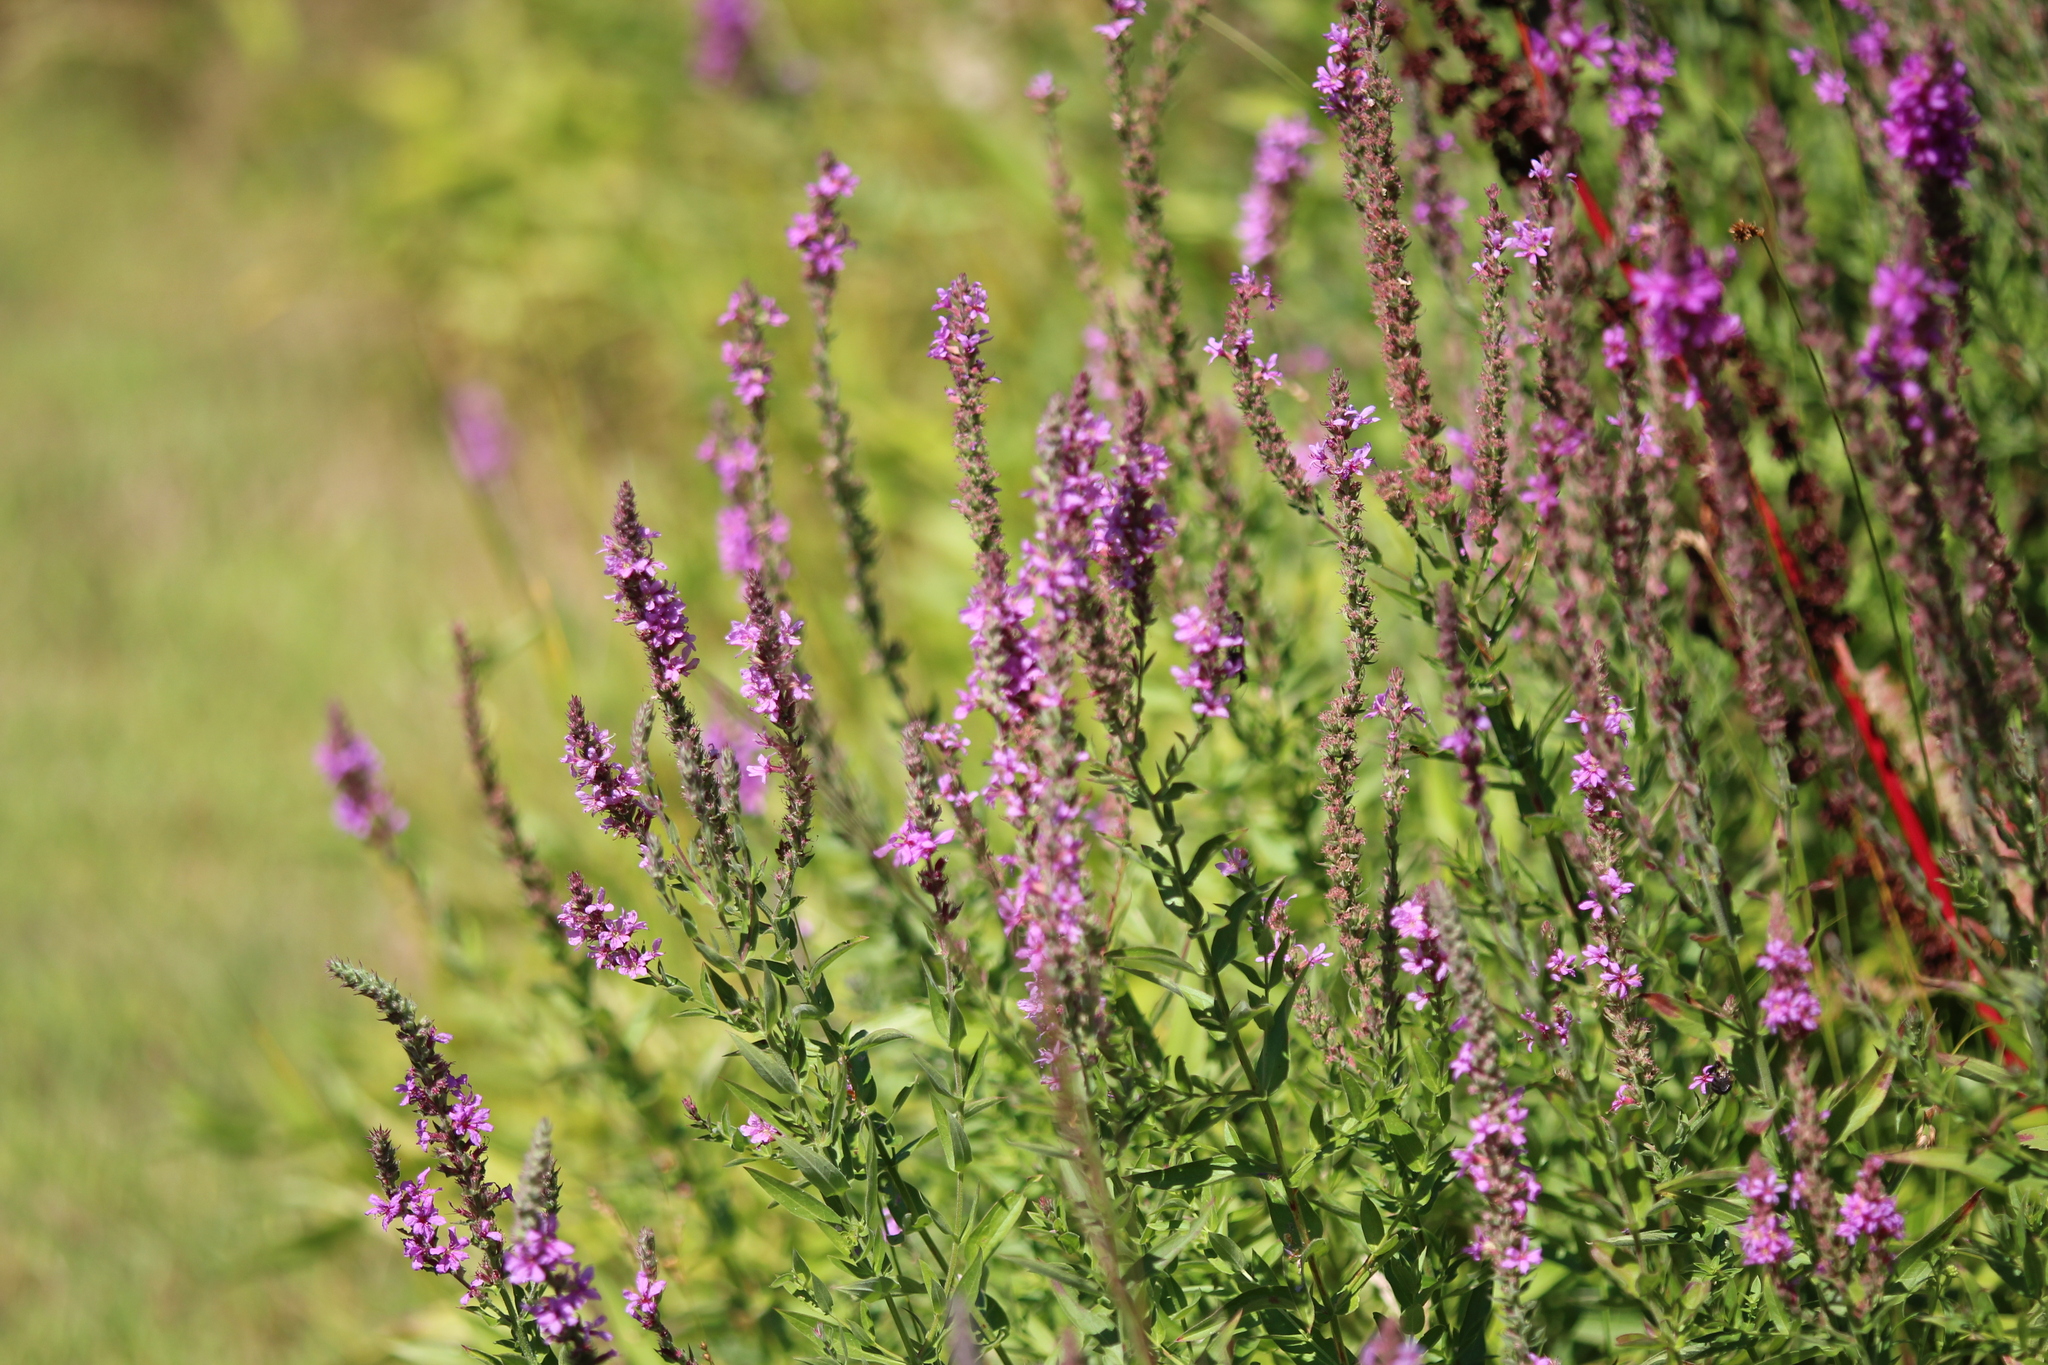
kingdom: Plantae
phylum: Tracheophyta
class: Magnoliopsida
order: Myrtales
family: Lythraceae
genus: Lythrum
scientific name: Lythrum salicaria
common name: Purple loosestrife
